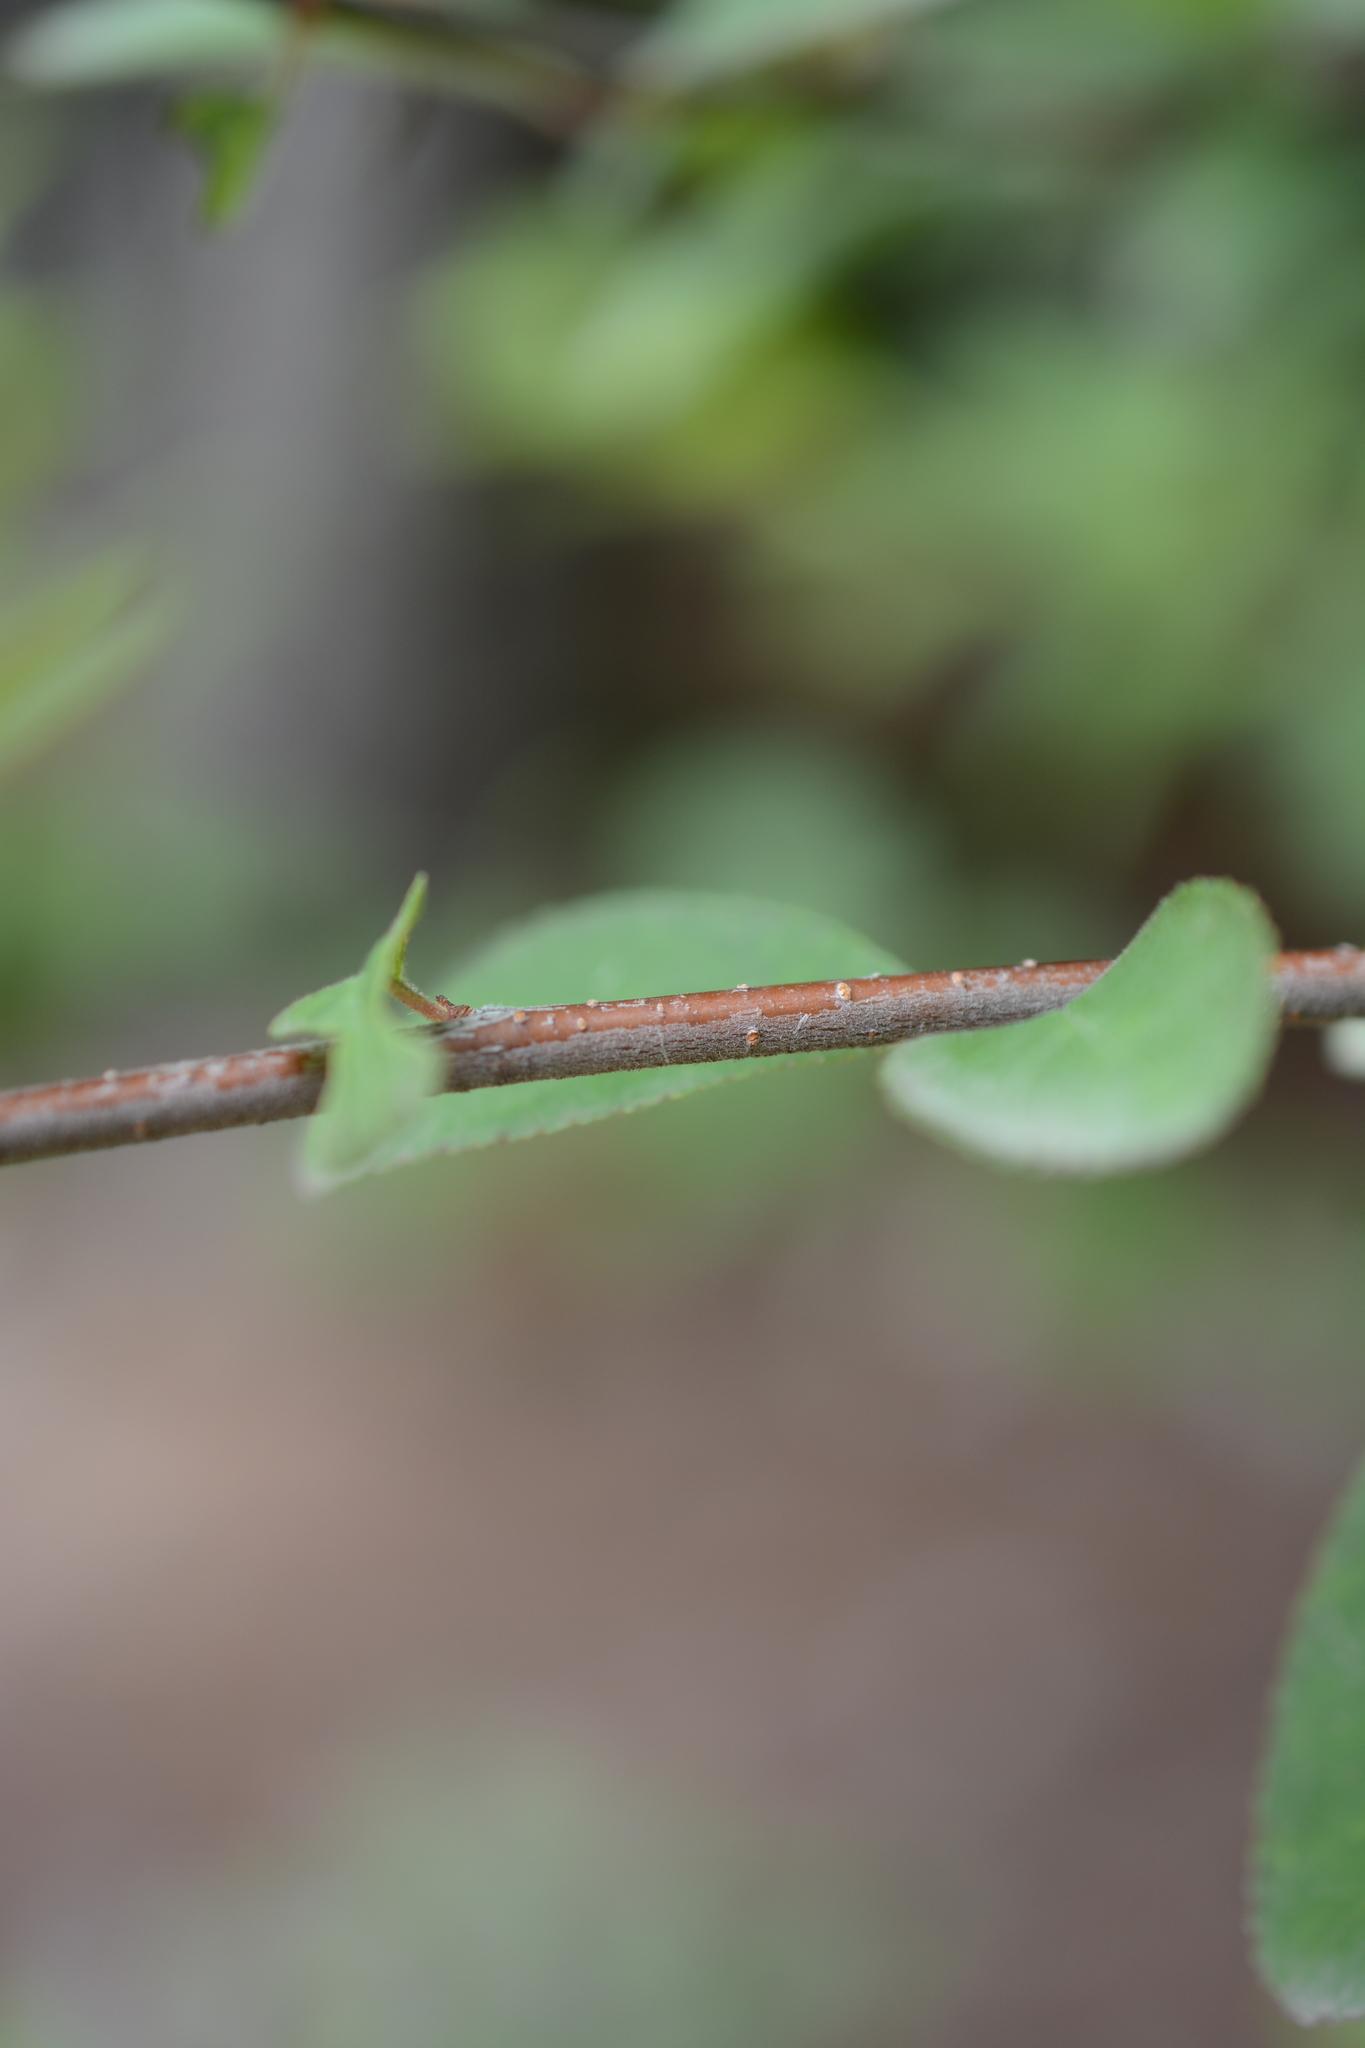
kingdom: Plantae
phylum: Tracheophyta
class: Magnoliopsida
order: Rosales
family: Rosaceae
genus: Prunus
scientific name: Prunus emarginata
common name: Bitter cherry
